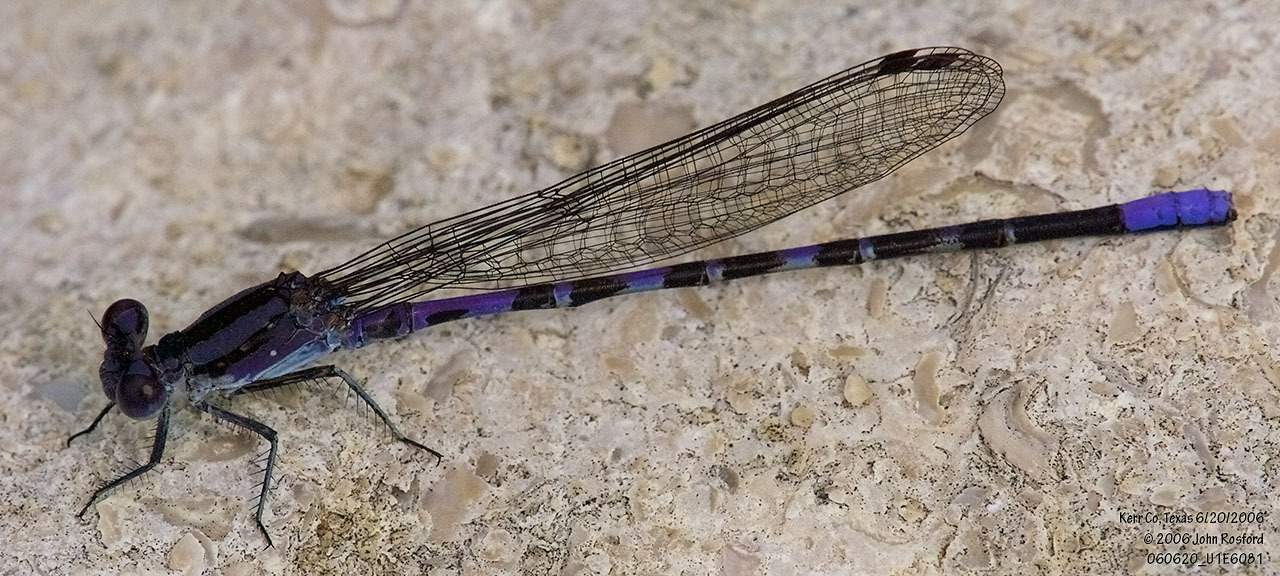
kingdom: Animalia
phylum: Arthropoda
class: Insecta
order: Odonata
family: Coenagrionidae
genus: Argia
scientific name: Argia immunda
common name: Kiowa dancer
